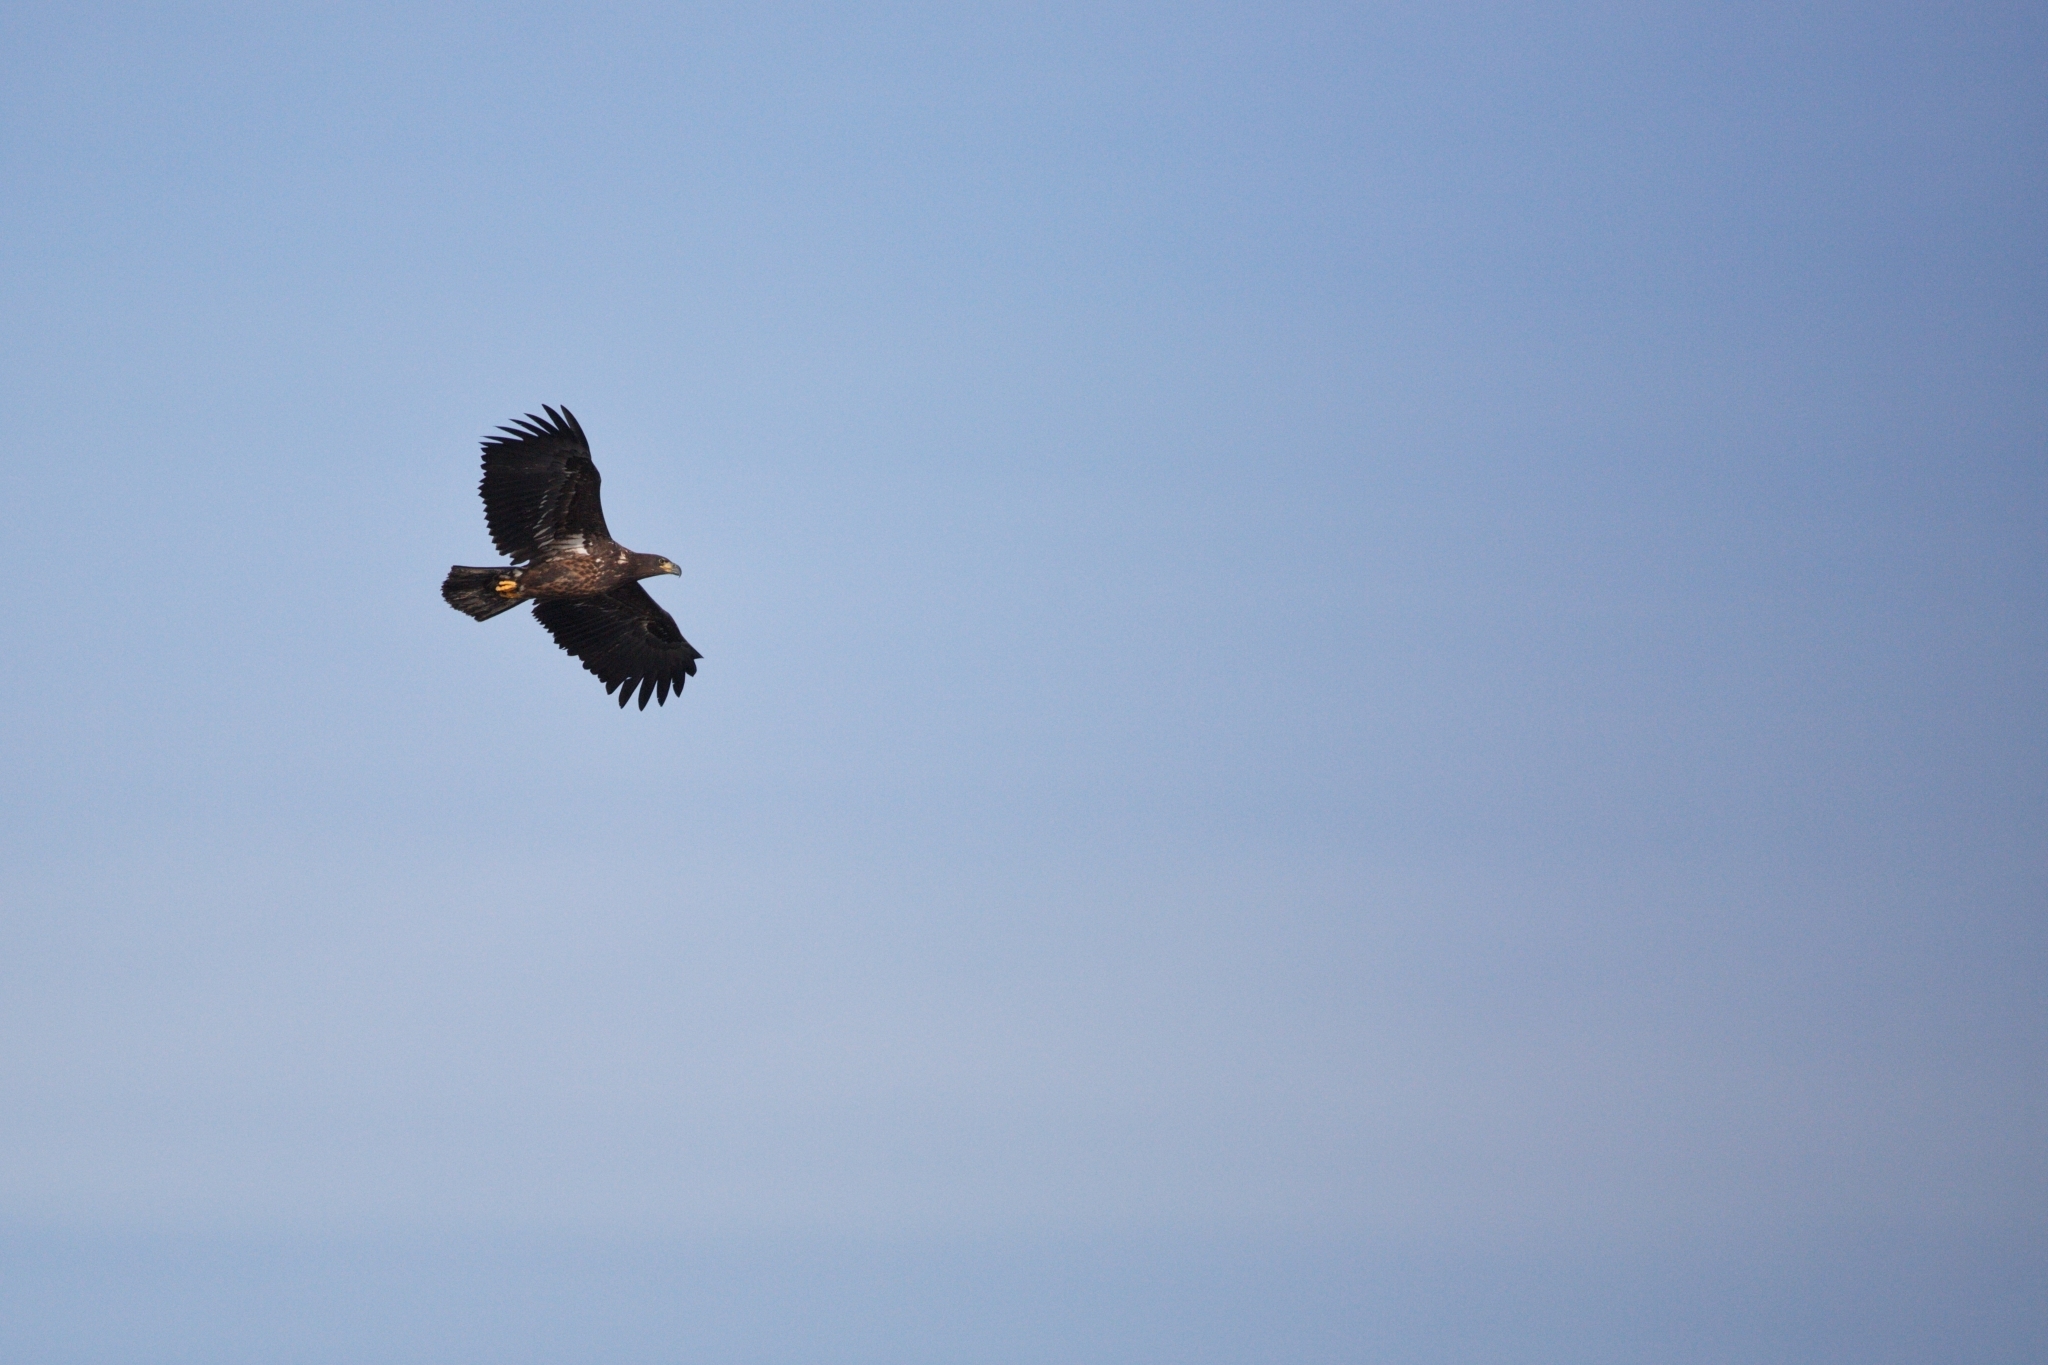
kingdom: Animalia
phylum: Chordata
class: Aves
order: Accipitriformes
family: Accipitridae
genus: Haliaeetus
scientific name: Haliaeetus albicilla
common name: White-tailed eagle
